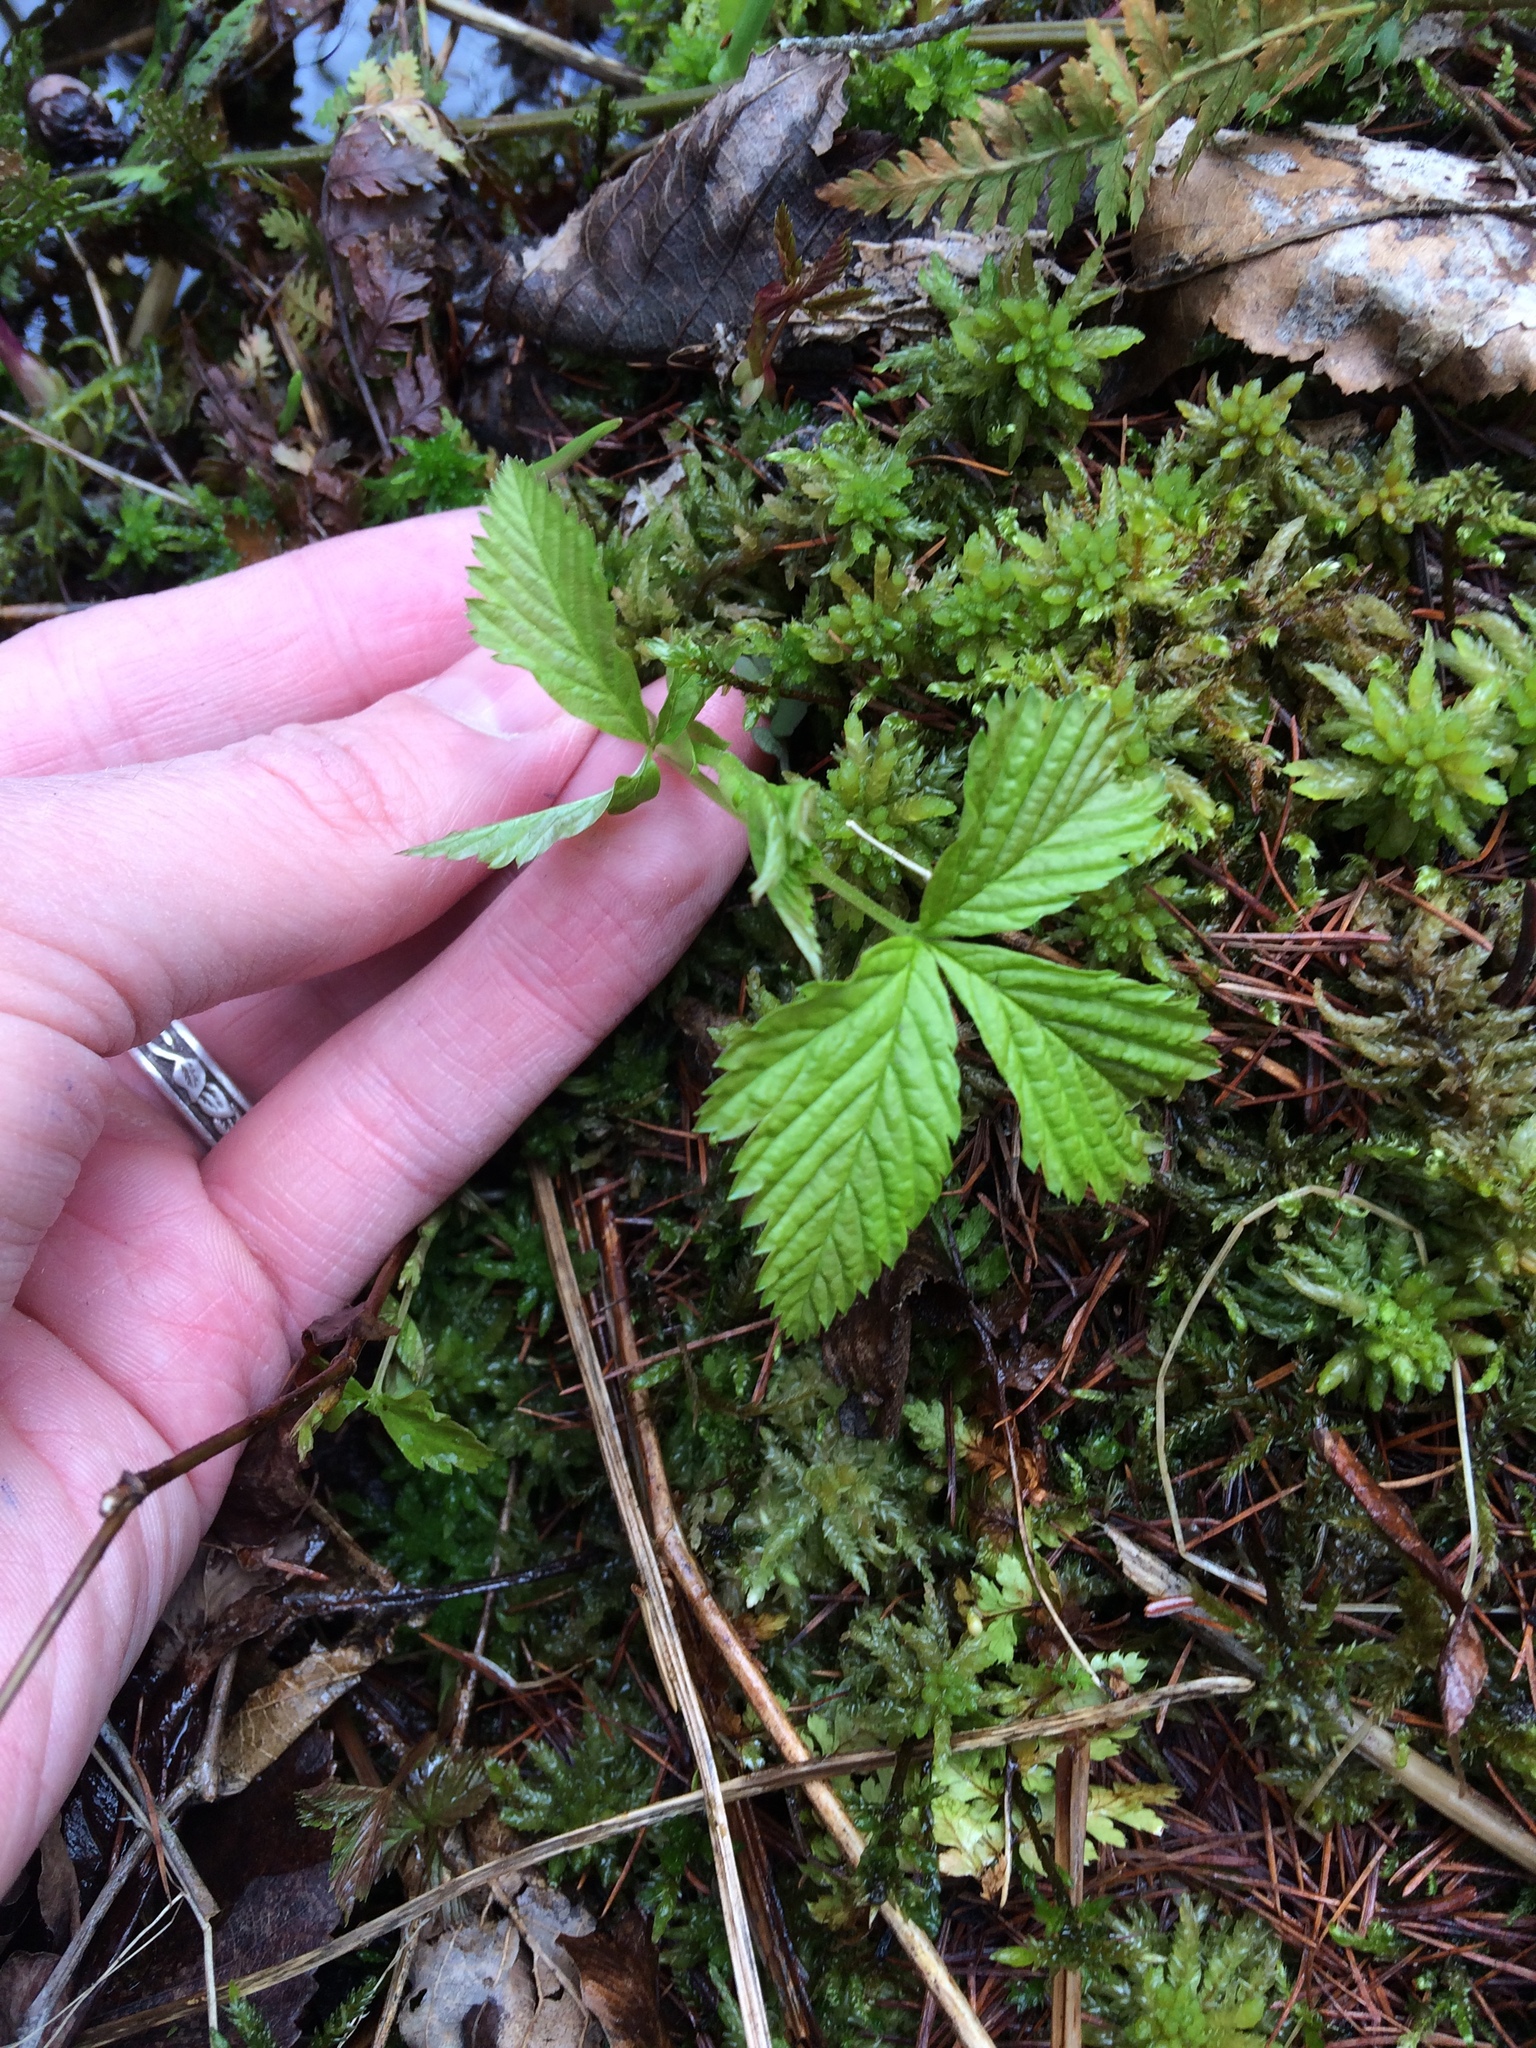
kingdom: Plantae
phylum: Tracheophyta
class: Magnoliopsida
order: Rosales
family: Rosaceae
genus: Rubus
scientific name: Rubus pubescens
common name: Dwarf raspberry
